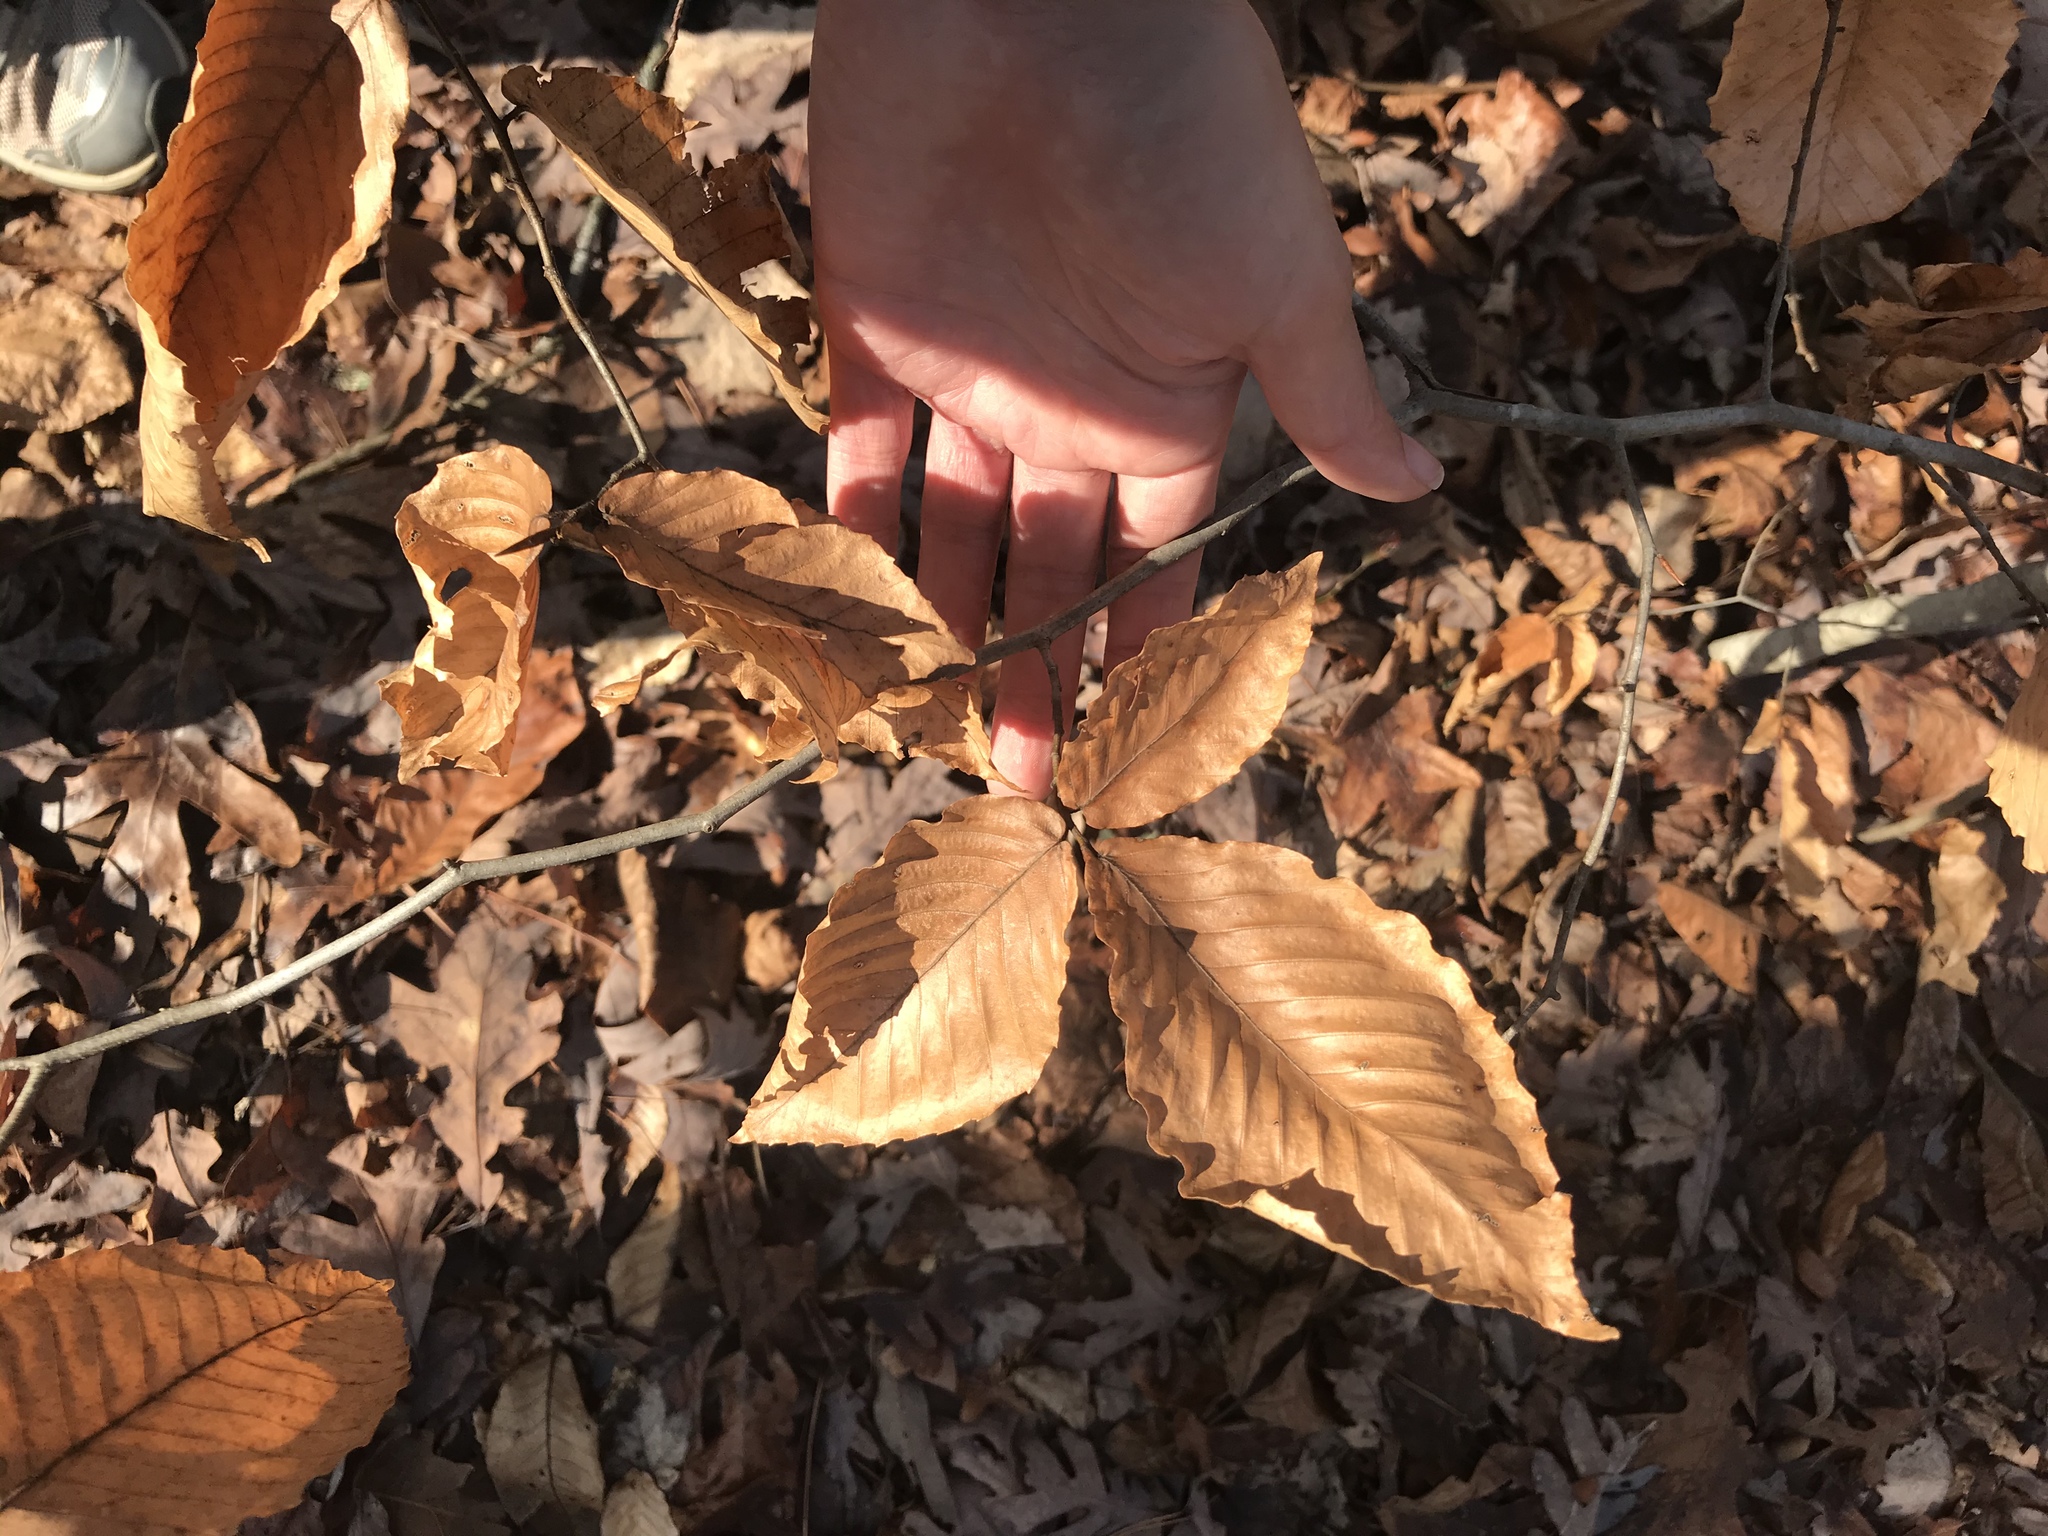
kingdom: Plantae
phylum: Tracheophyta
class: Magnoliopsida
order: Fagales
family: Fagaceae
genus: Fagus
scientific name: Fagus grandifolia
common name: American beech
